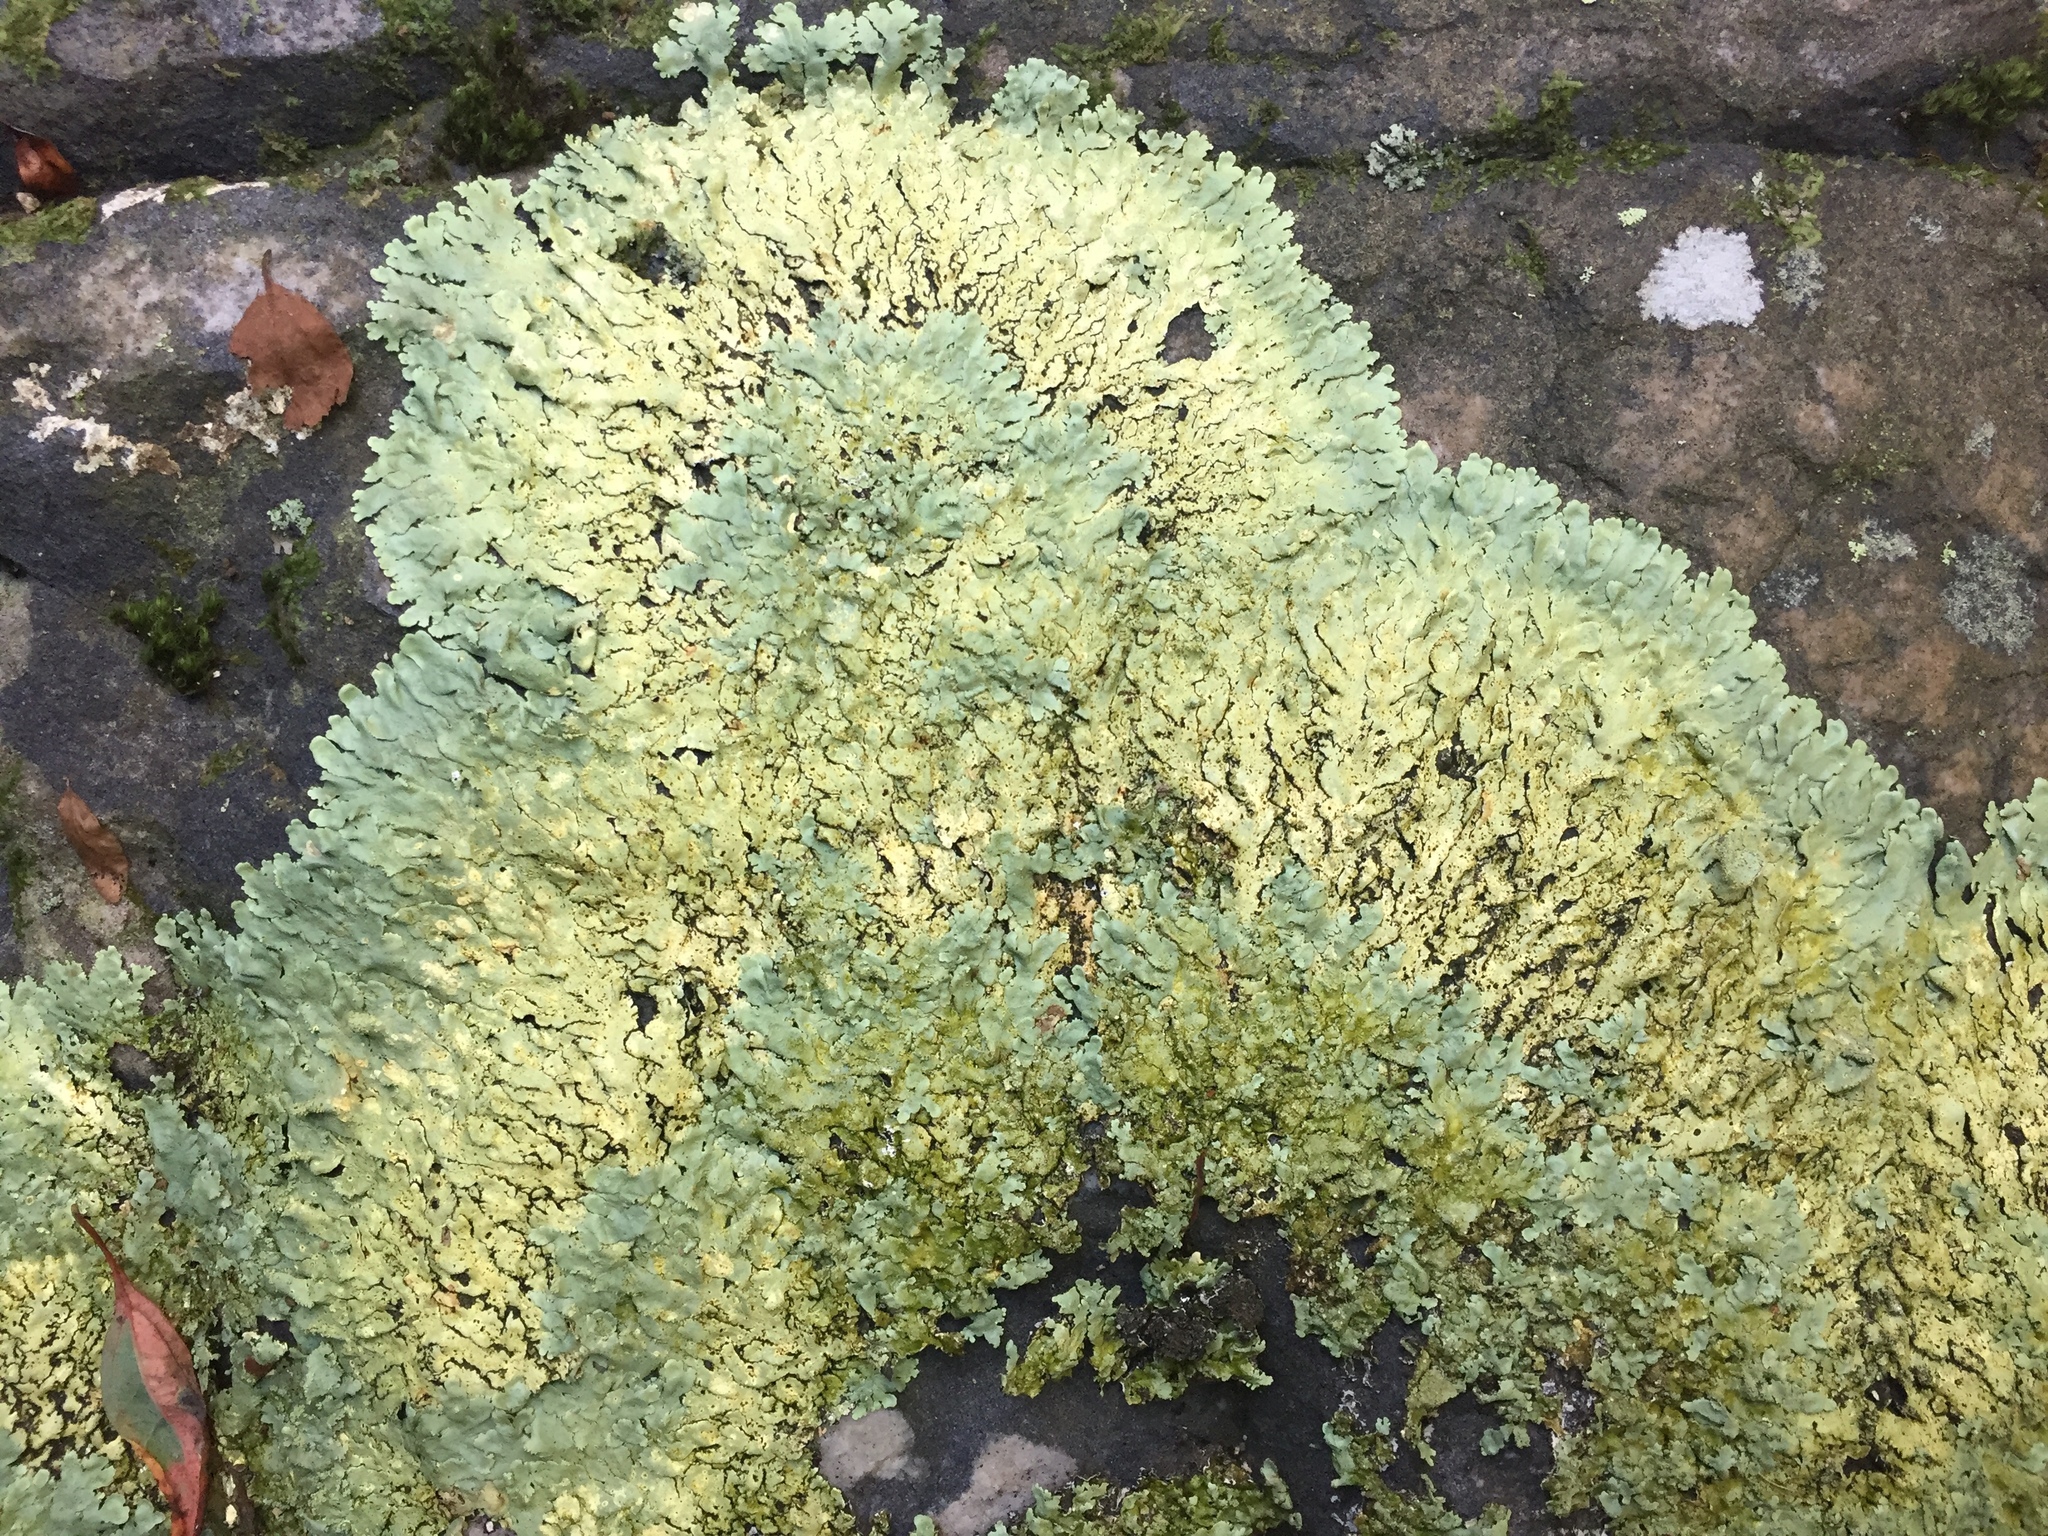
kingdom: Fungi
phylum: Ascomycota
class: Lecanoromycetes
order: Lecanorales
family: Parmeliaceae
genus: Flavoparmelia
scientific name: Flavoparmelia baltimorensis
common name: Rock greenshield
